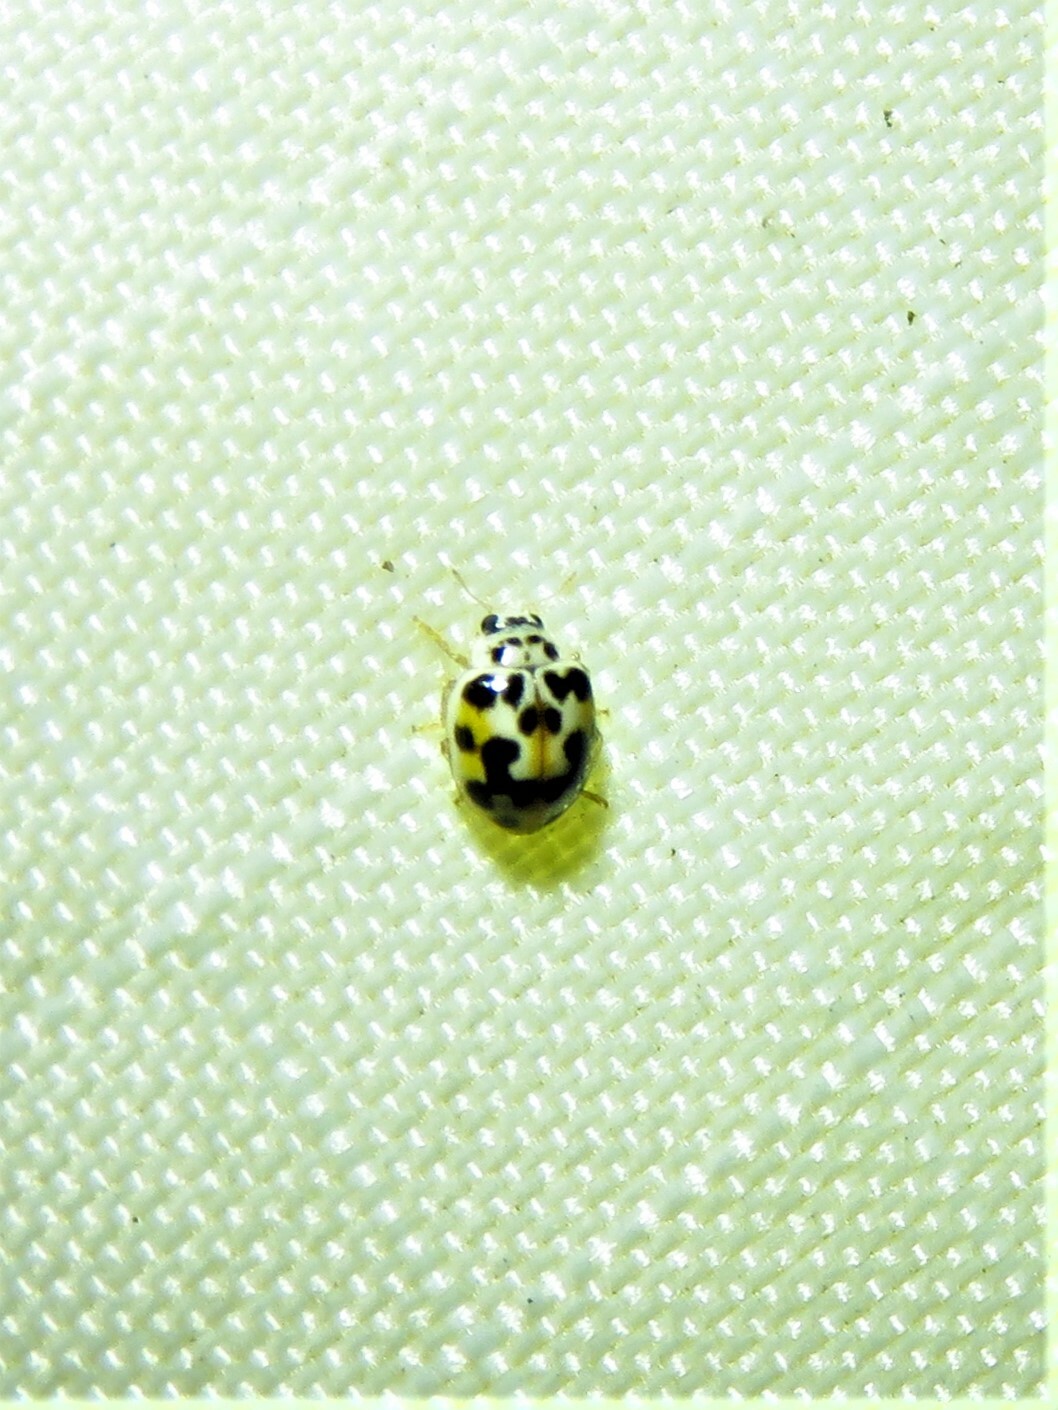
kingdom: Animalia
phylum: Arthropoda
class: Insecta
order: Coleoptera
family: Coccinellidae
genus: Psyllobora
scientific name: Psyllobora vigintimaculata
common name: Ladybird beetle
